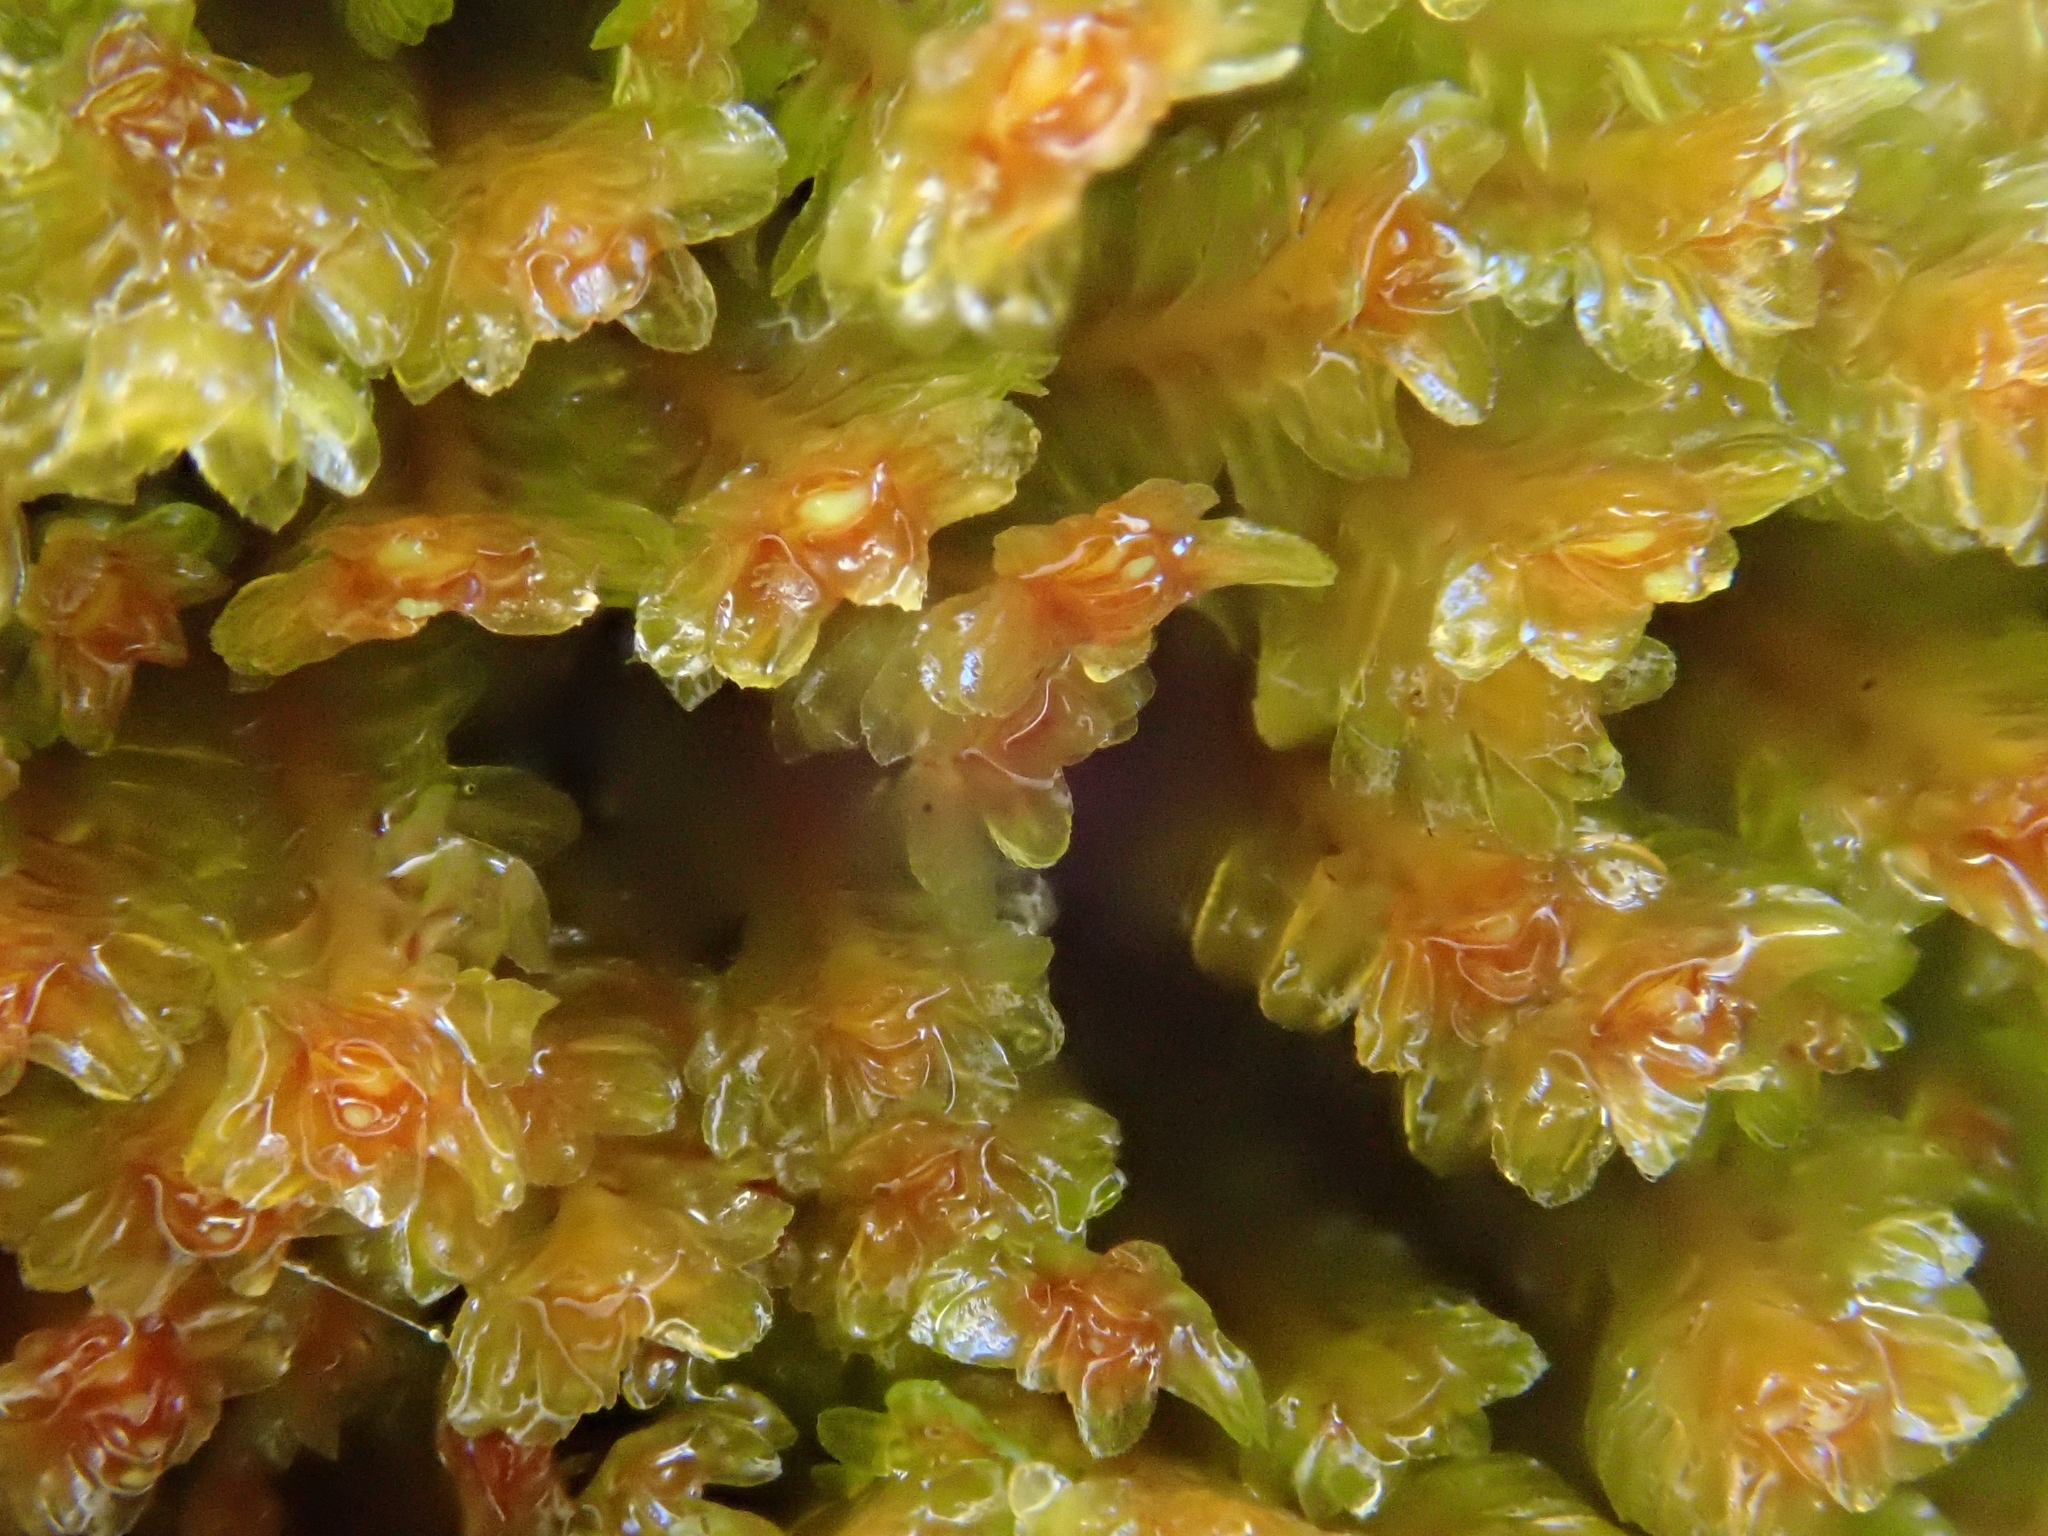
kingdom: Plantae
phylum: Marchantiophyta
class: Jungermanniopsida
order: Jungermanniales
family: Scapaniaceae
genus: Diplophyllum
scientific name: Diplophyllum albicans
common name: White earwort
